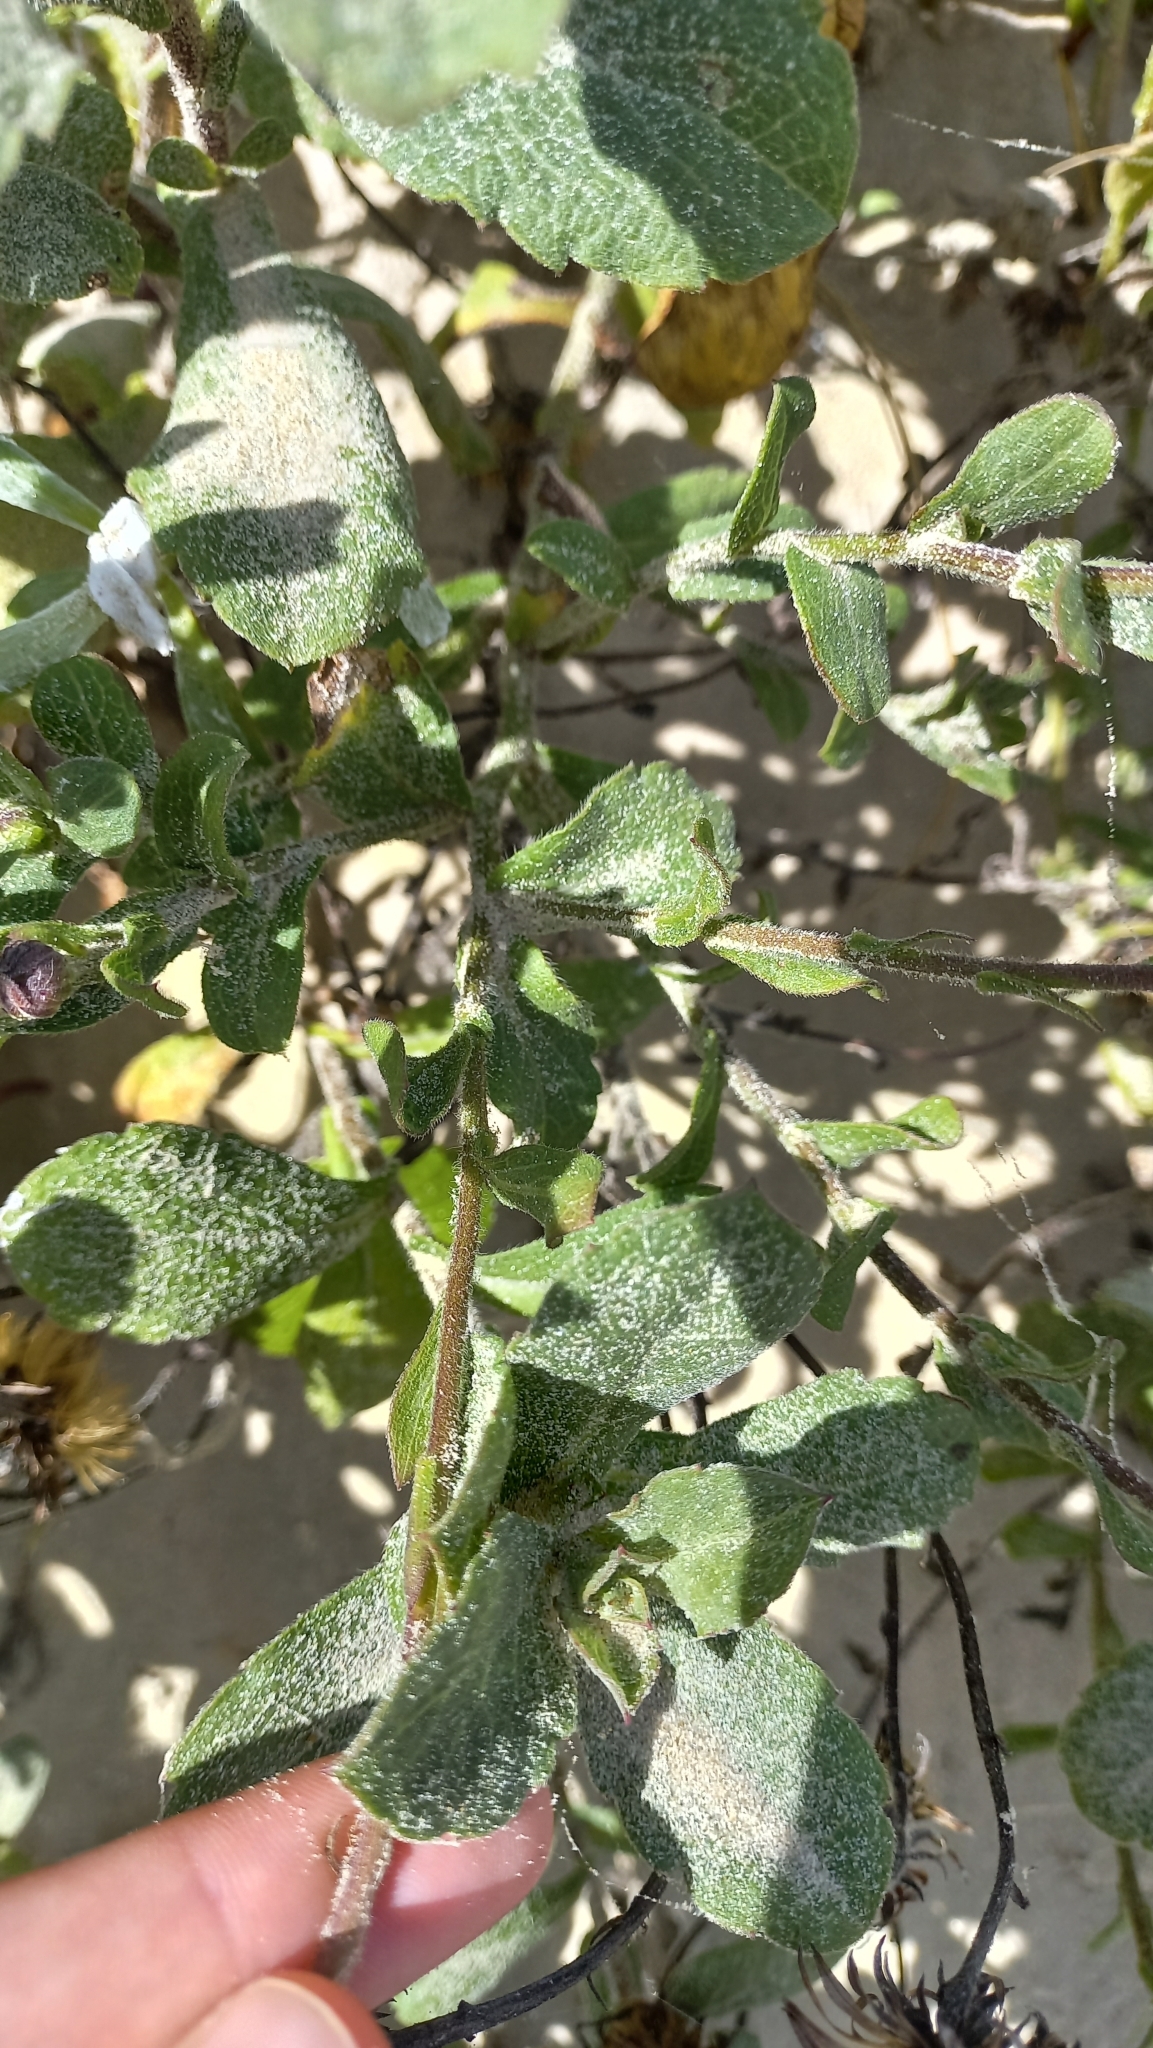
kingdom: Plantae
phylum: Tracheophyta
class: Magnoliopsida
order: Asterales
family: Asteraceae
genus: Noticastrum
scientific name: Noticastrum hatschbachii
